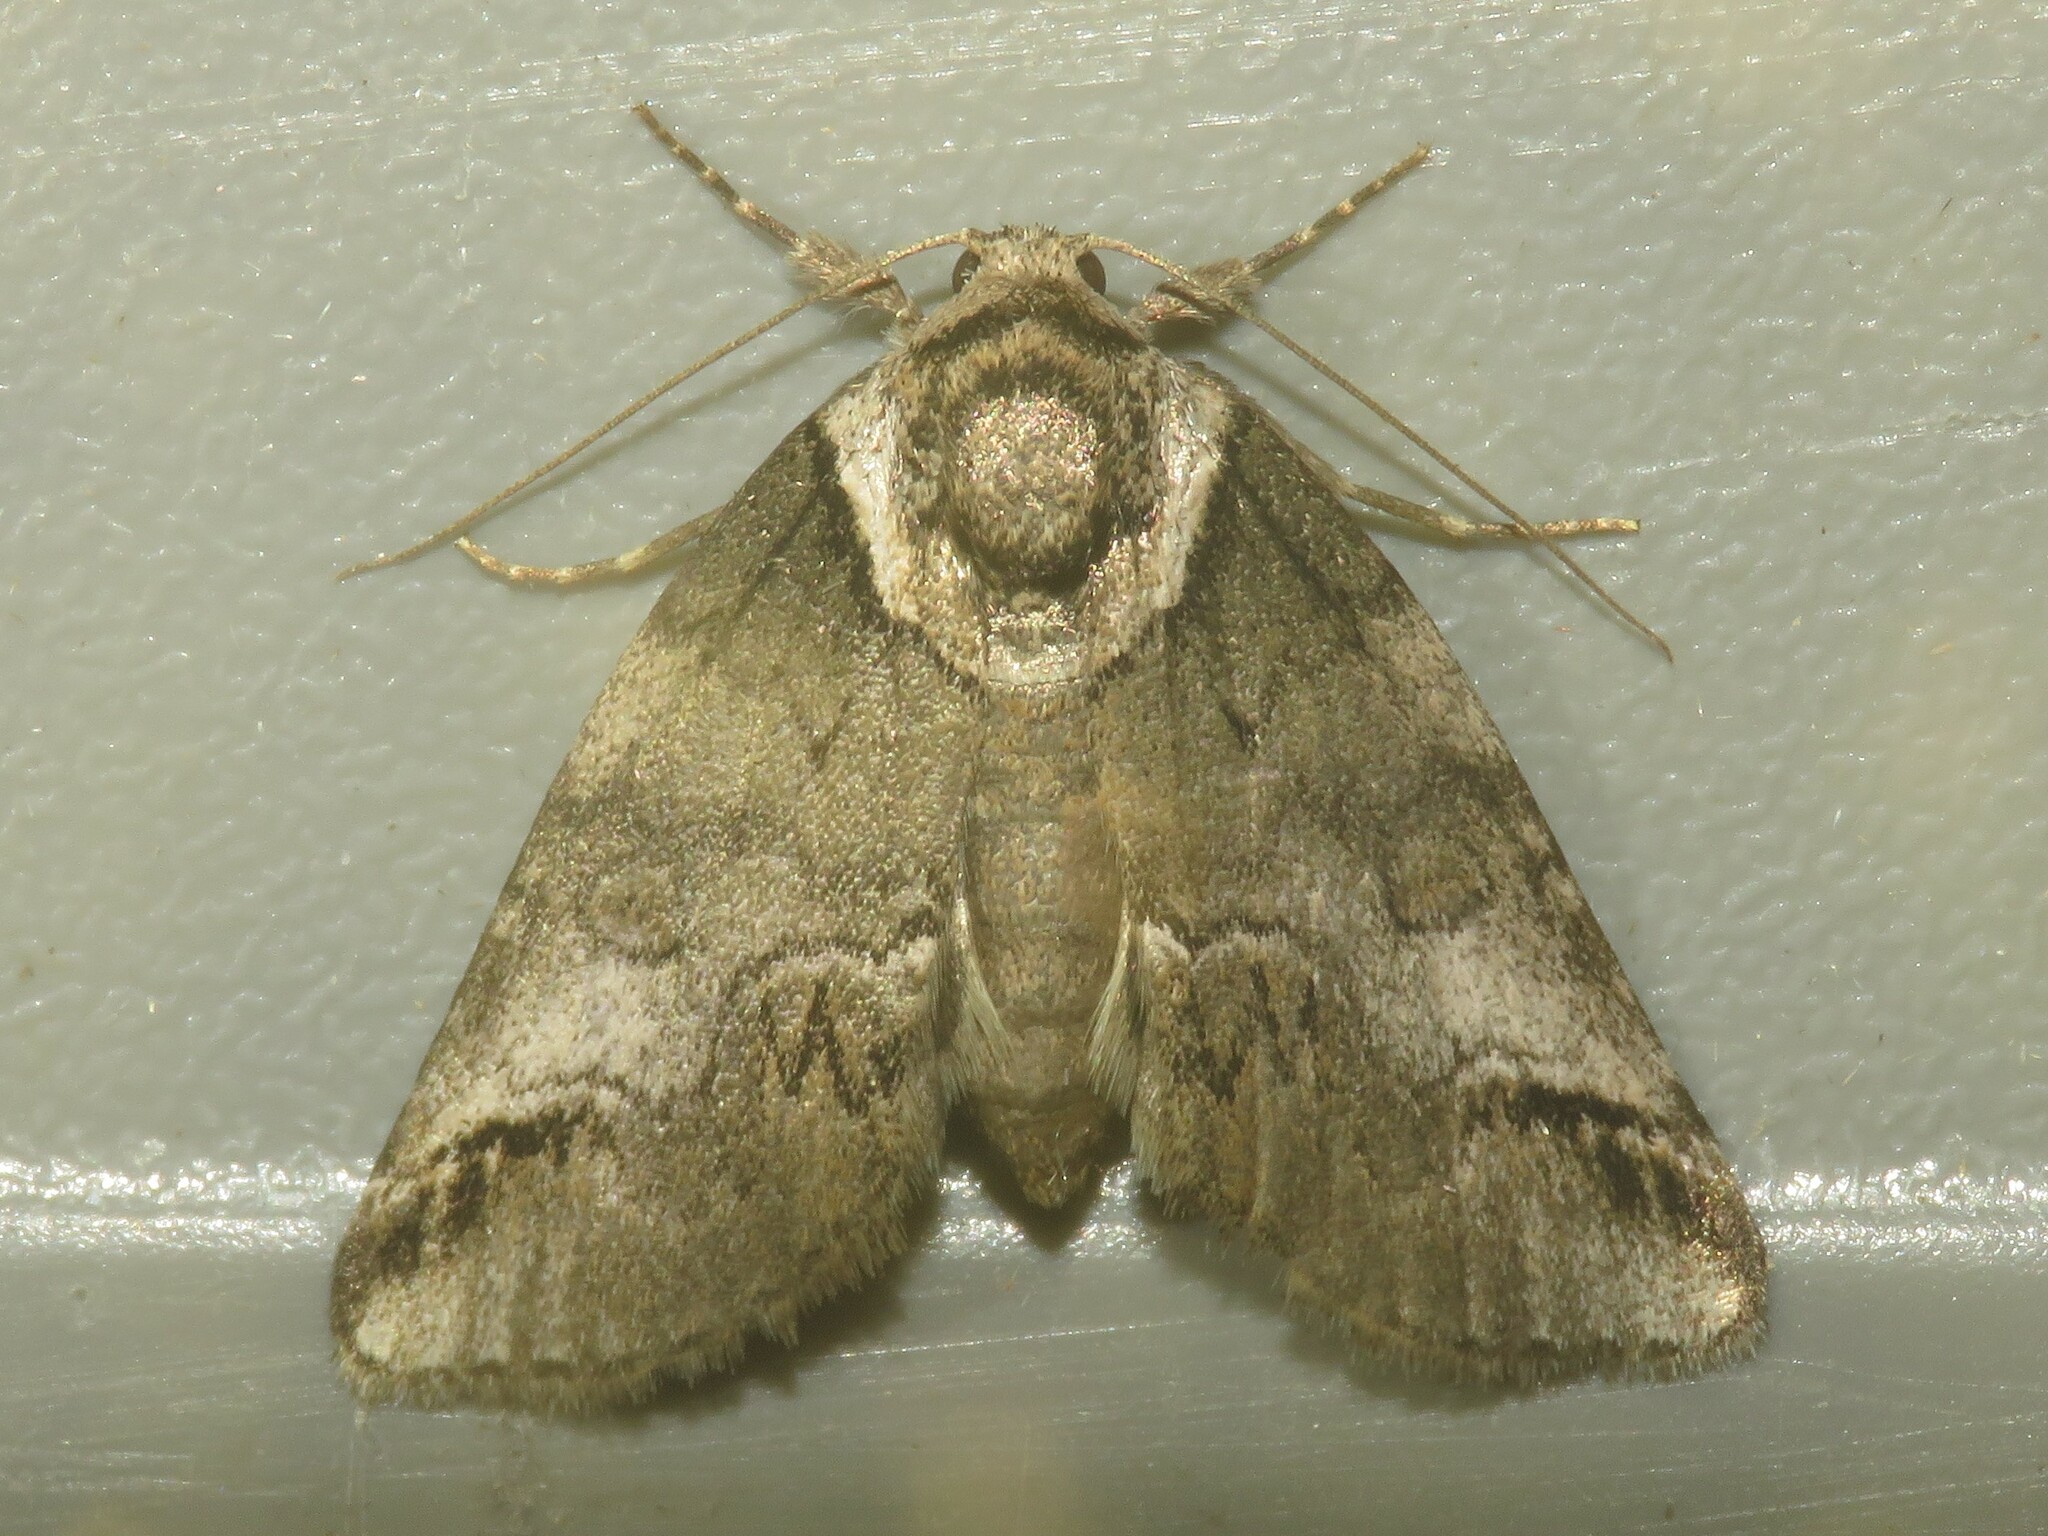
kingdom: Animalia
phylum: Arthropoda
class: Insecta
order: Lepidoptera
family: Nolidae
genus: Baileya
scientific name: Baileya australis
